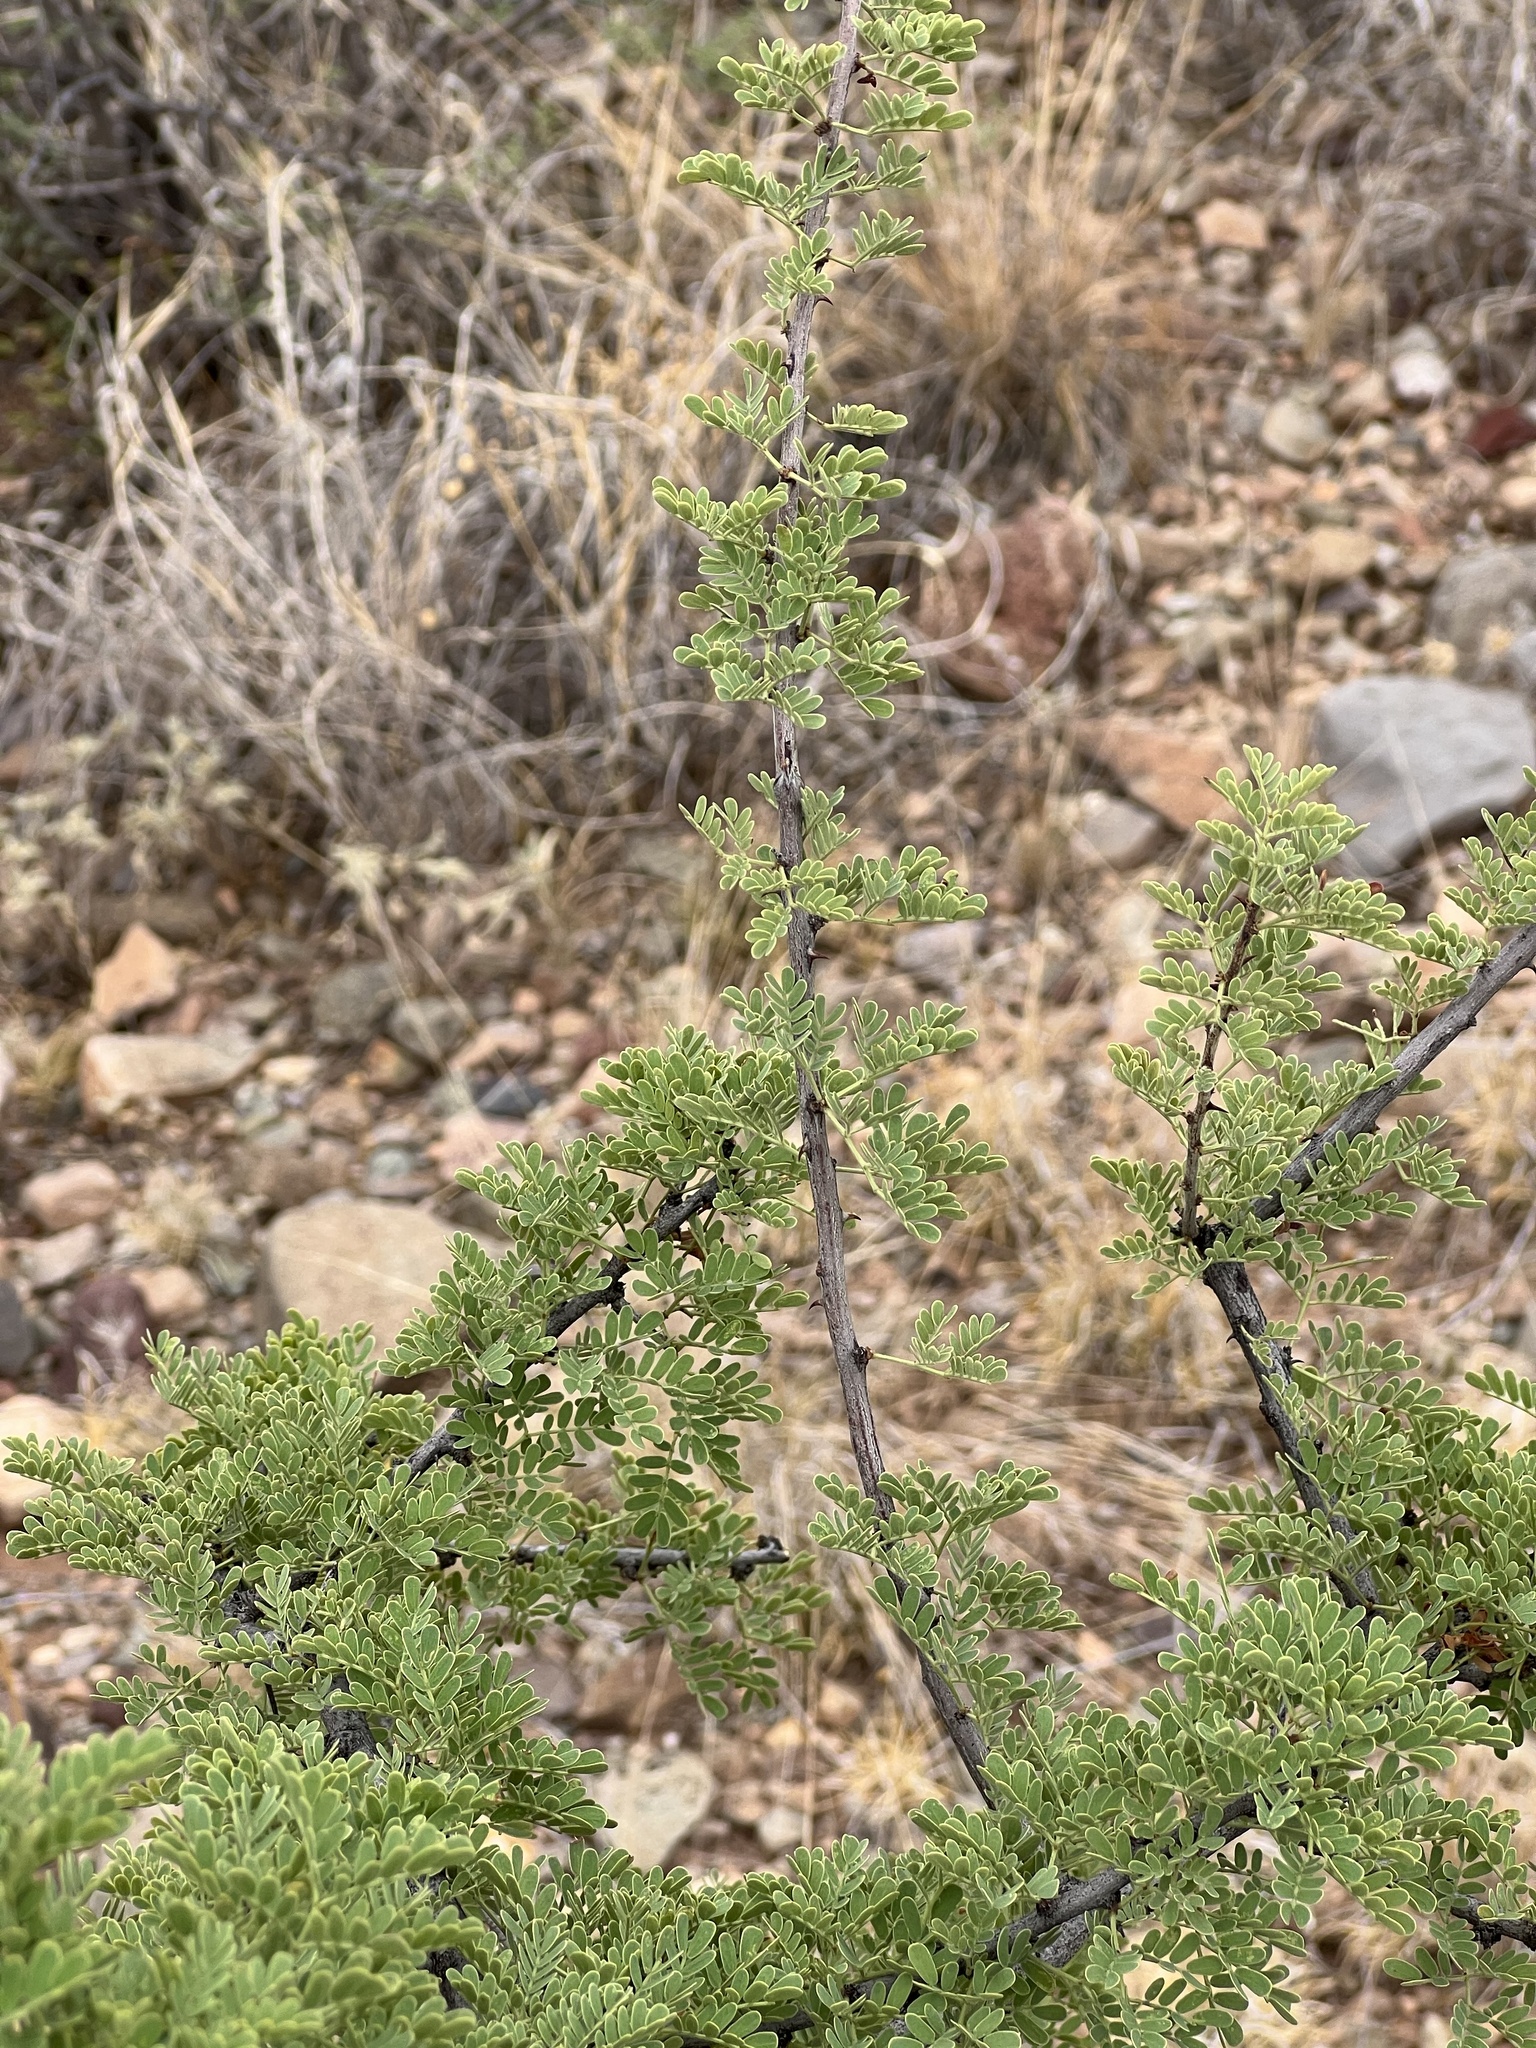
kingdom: Plantae
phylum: Tracheophyta
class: Magnoliopsida
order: Fabales
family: Fabaceae
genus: Senegalia
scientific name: Senegalia greggii
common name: Texas-mimosa
